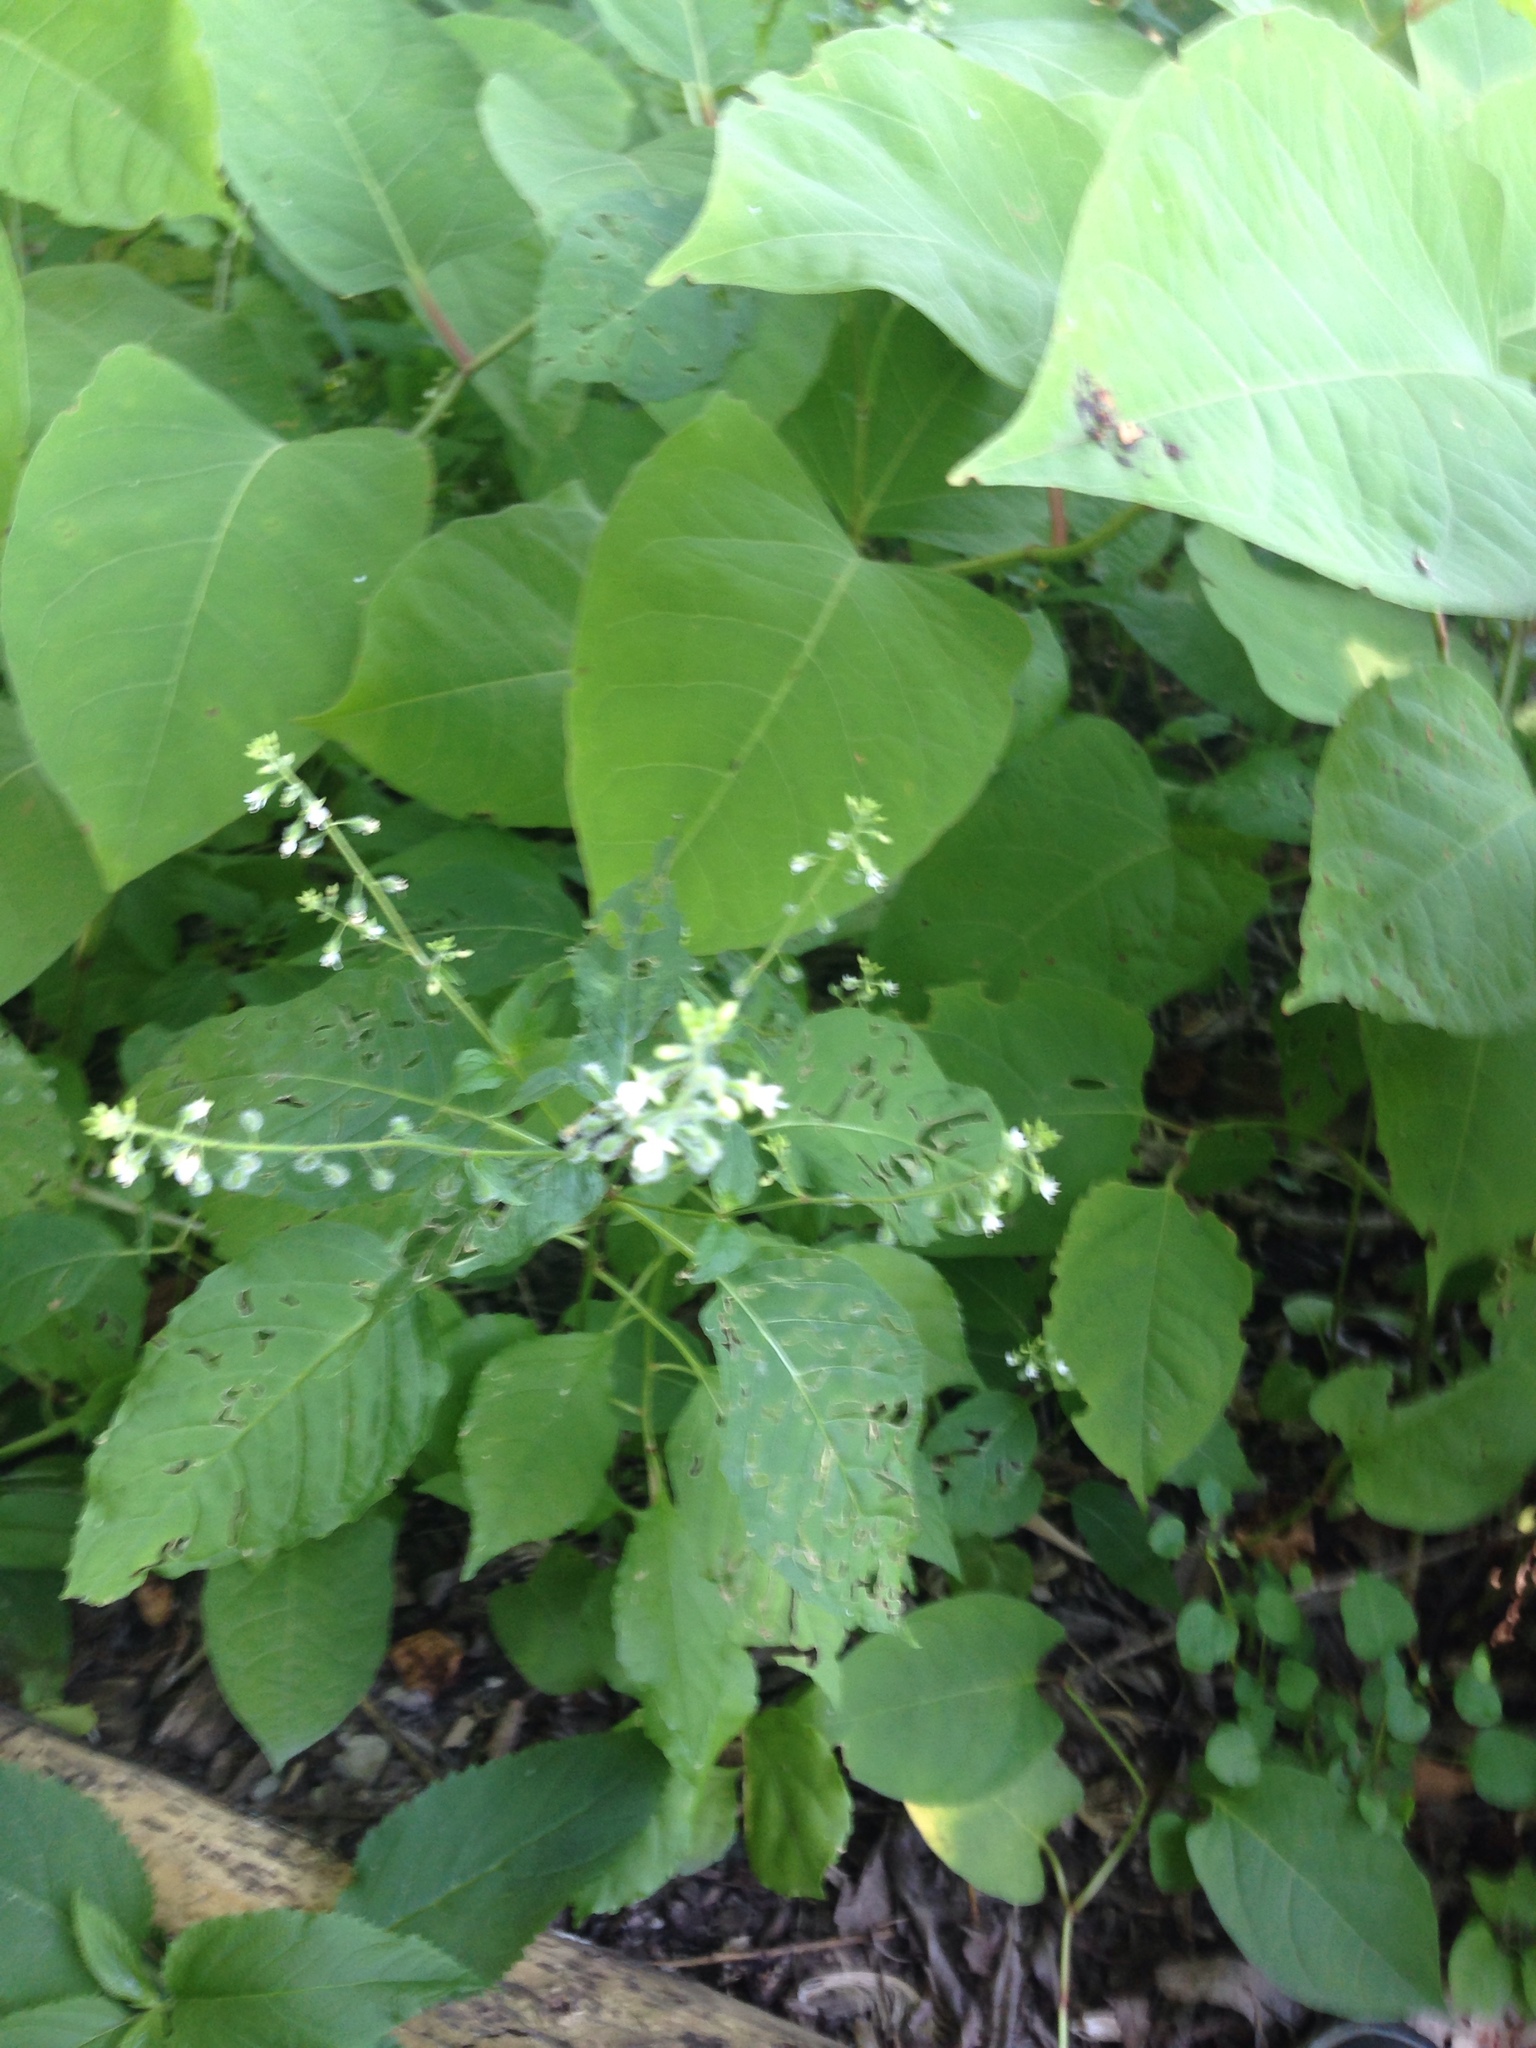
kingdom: Plantae
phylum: Tracheophyta
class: Magnoliopsida
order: Myrtales
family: Onagraceae
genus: Circaea
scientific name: Circaea canadensis
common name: Broad-leaved enchanter's nightshade
